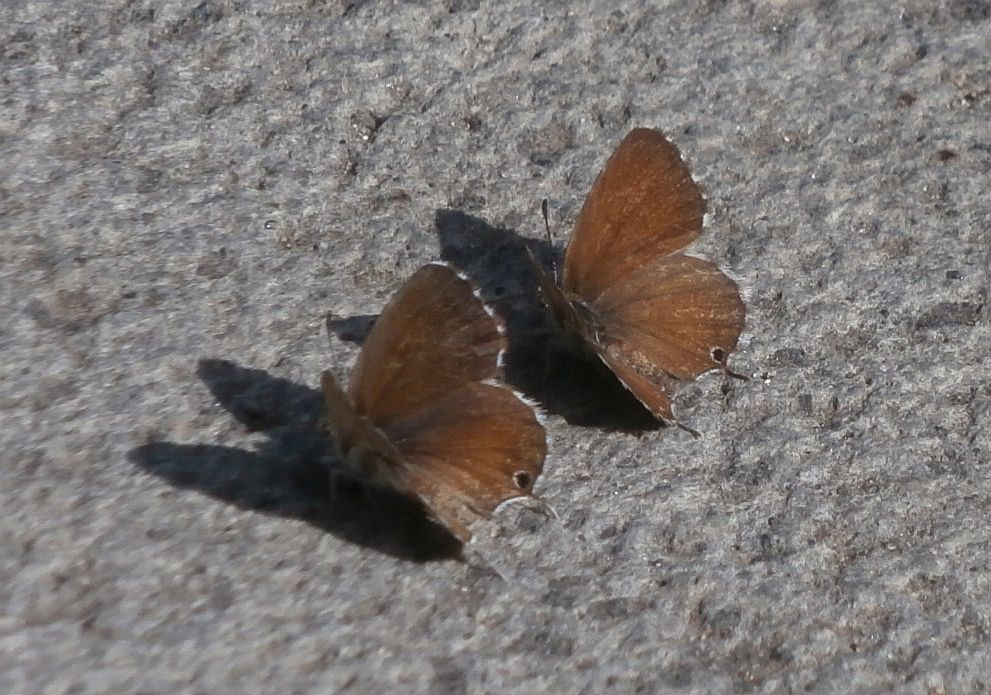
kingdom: Animalia
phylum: Arthropoda
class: Insecta
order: Lepidoptera
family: Lycaenidae
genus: Cacyreus
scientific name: Cacyreus marshalli
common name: Geranium bronze
